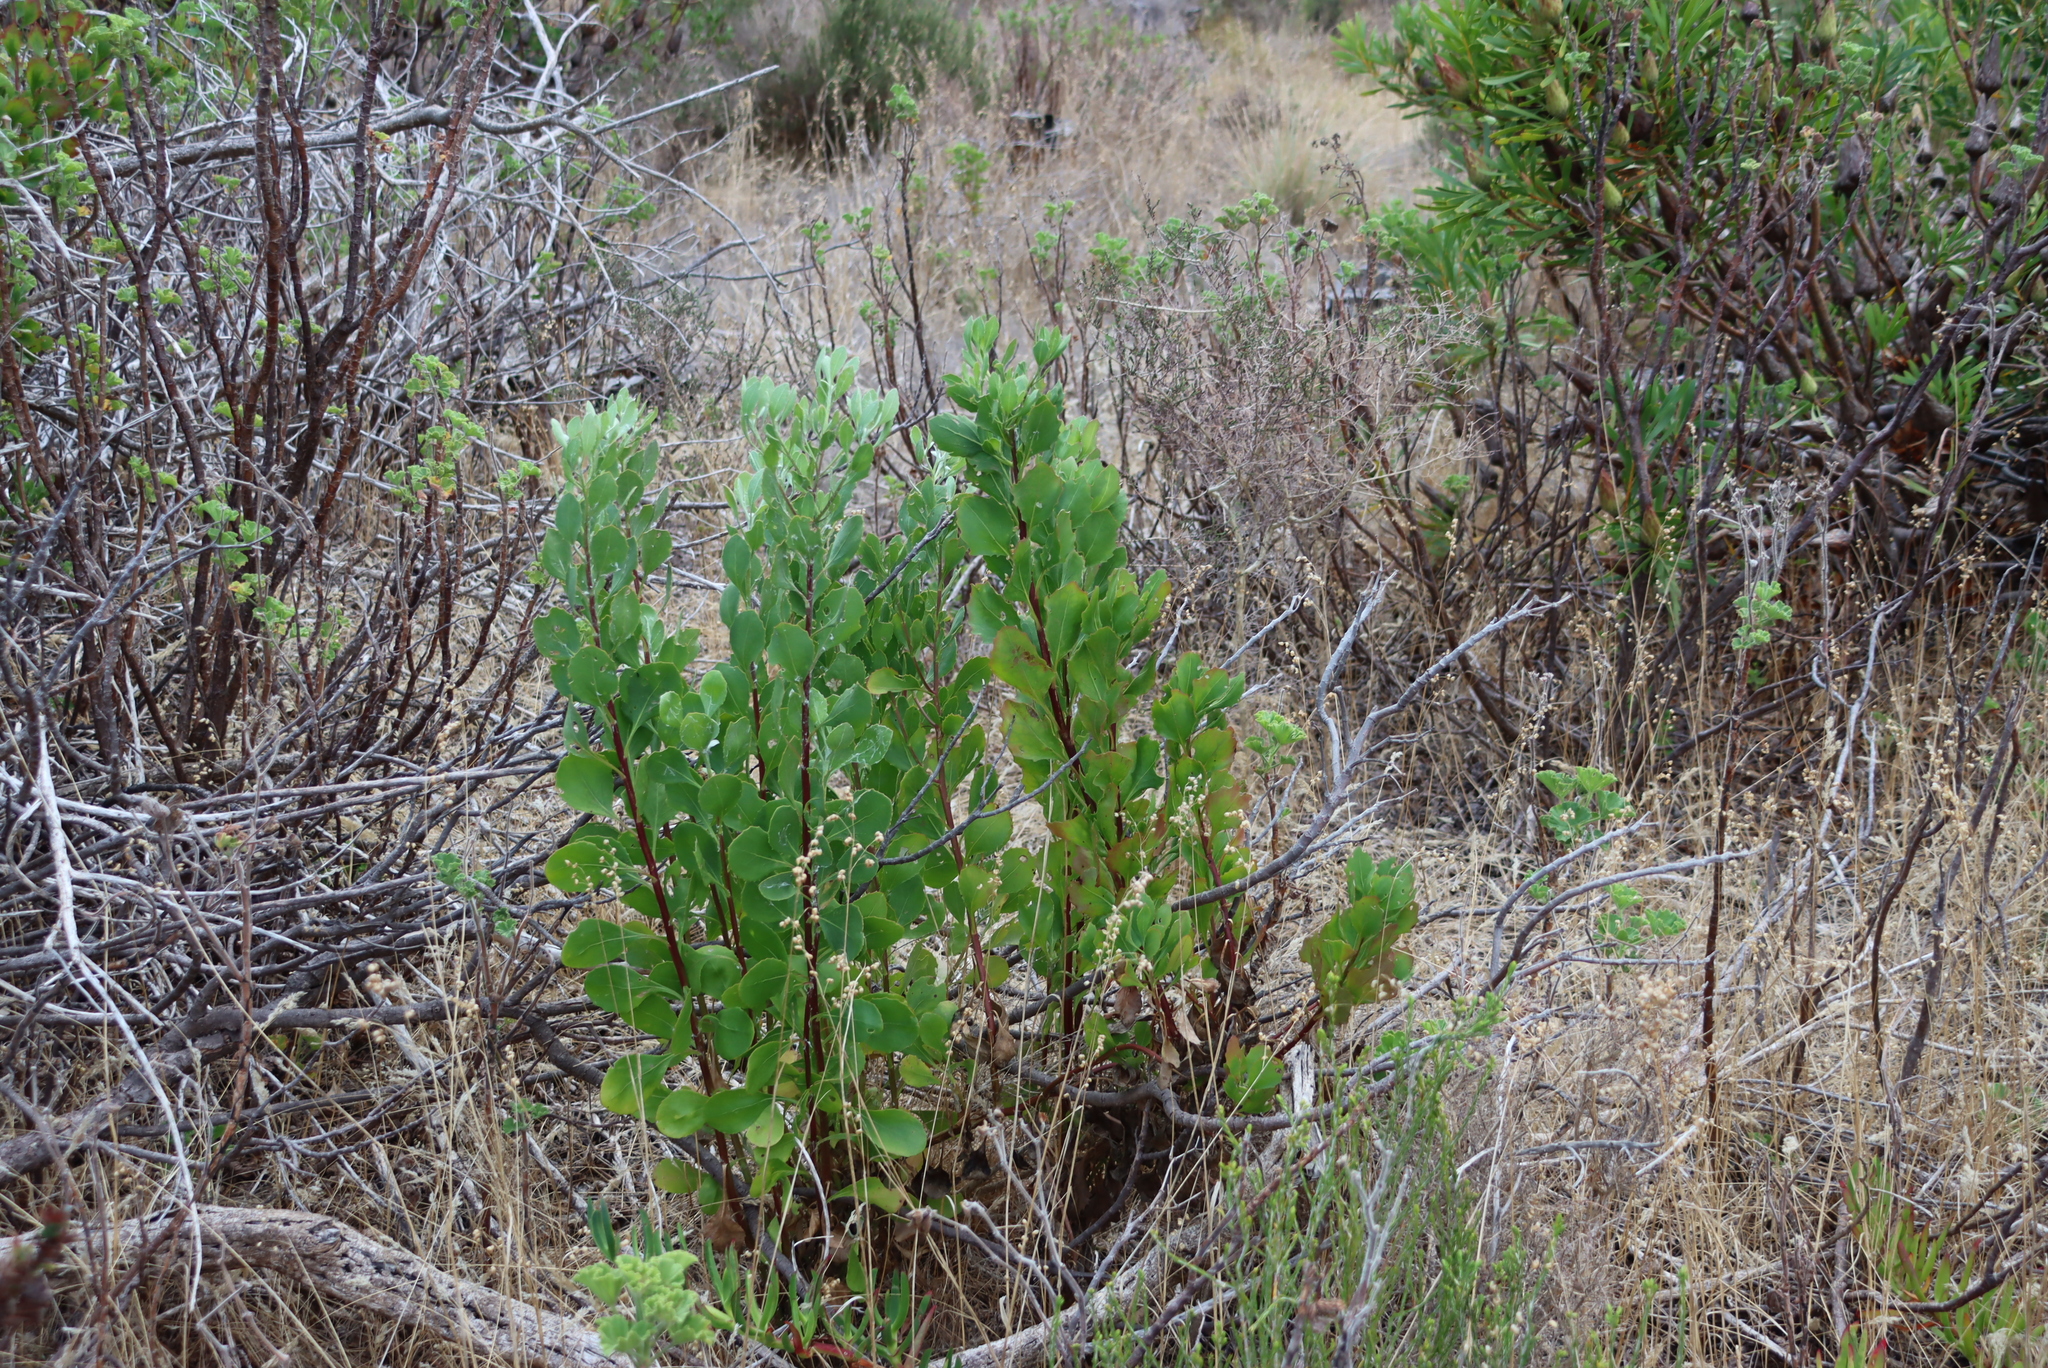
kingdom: Plantae
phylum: Tracheophyta
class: Magnoliopsida
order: Asterales
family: Asteraceae
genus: Osteospermum
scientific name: Osteospermum moniliferum
